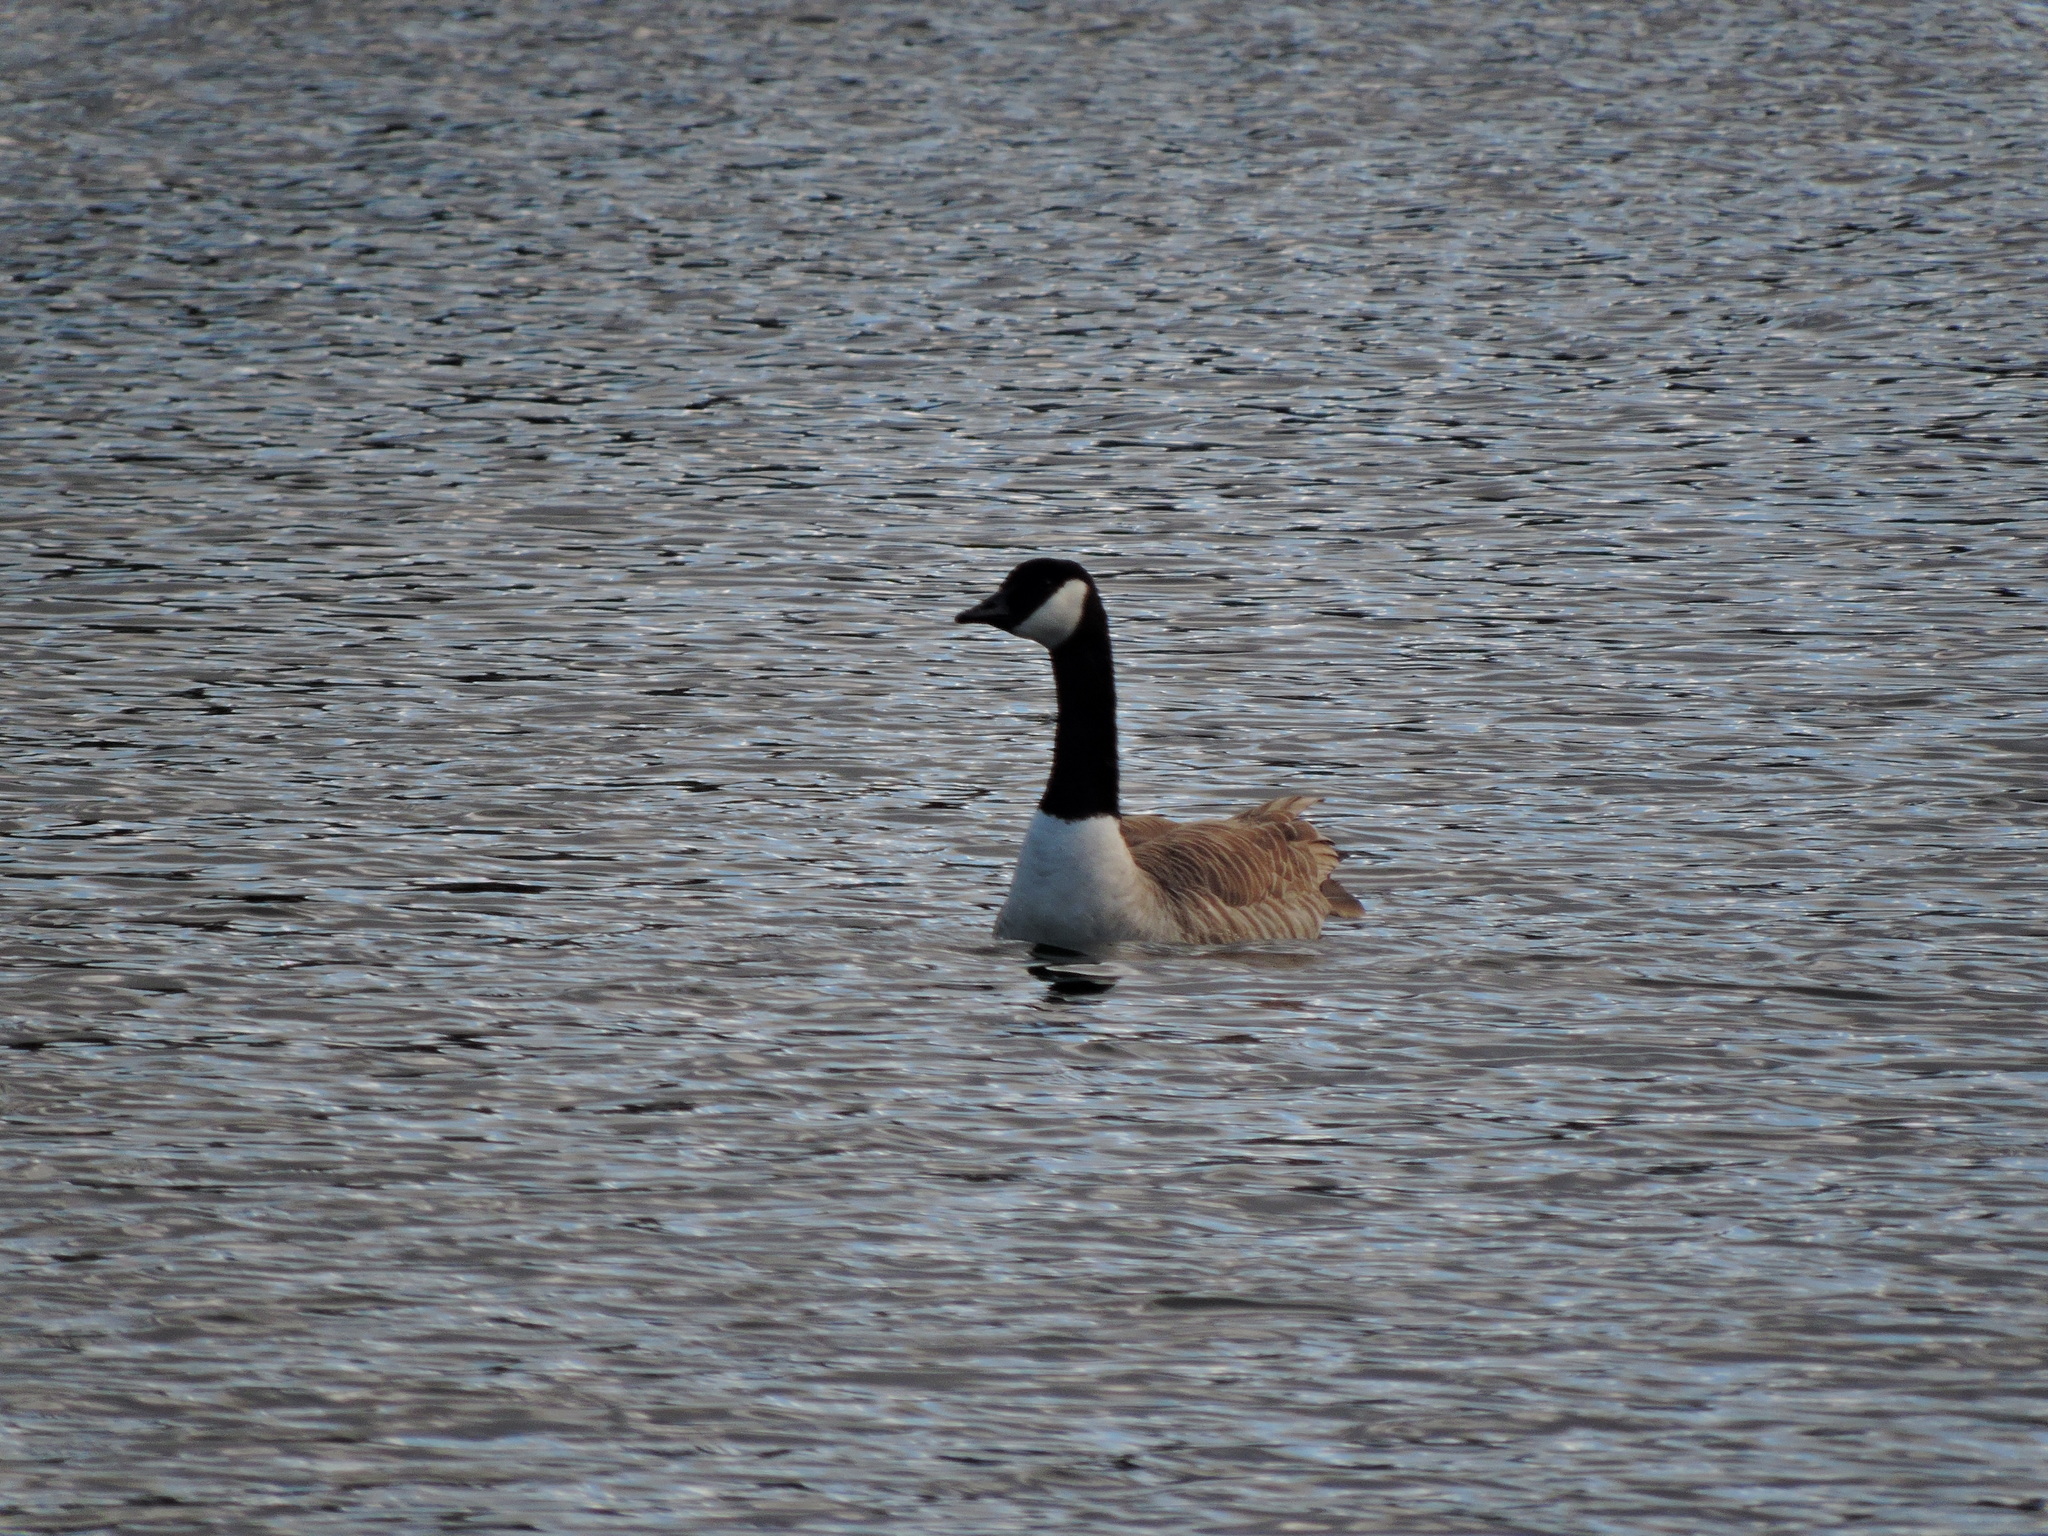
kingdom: Animalia
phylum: Chordata
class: Aves
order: Anseriformes
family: Anatidae
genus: Branta
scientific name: Branta canadensis
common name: Canada goose
